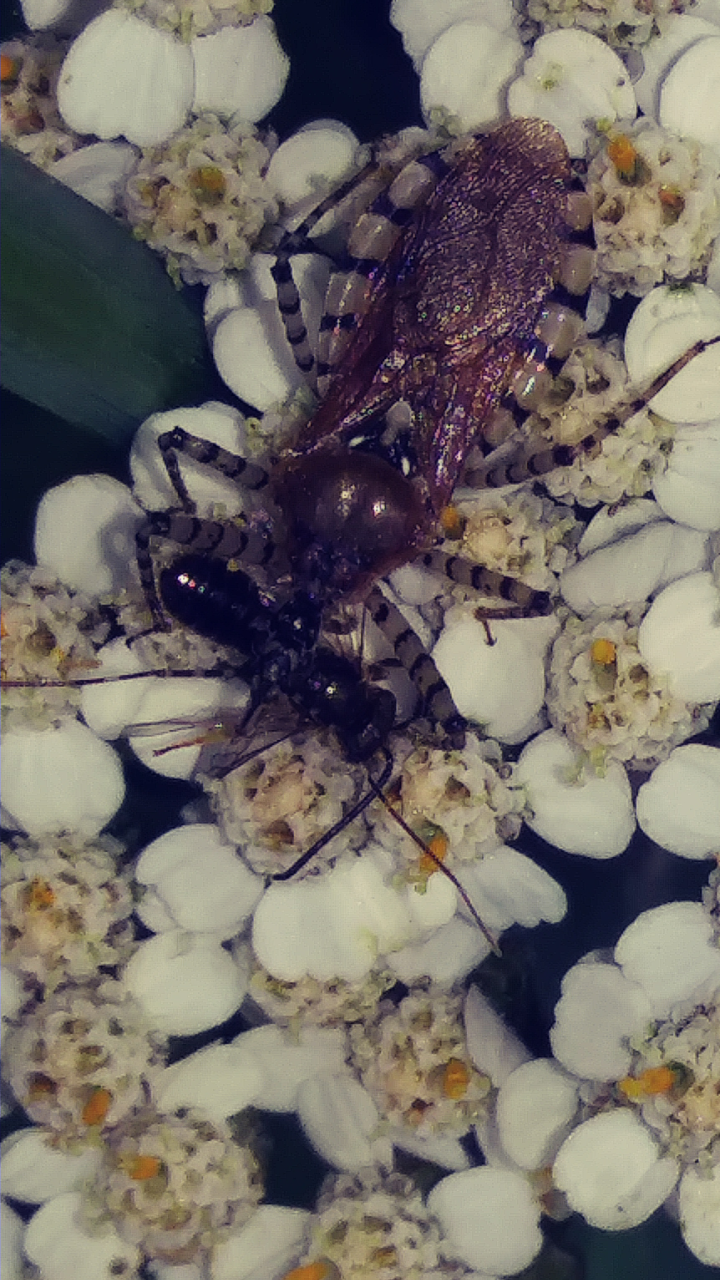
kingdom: Animalia
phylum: Arthropoda
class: Insecta
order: Hemiptera
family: Reduviidae
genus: Pselliopus
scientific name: Pselliopus cinctus
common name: Ringed assassin bug
